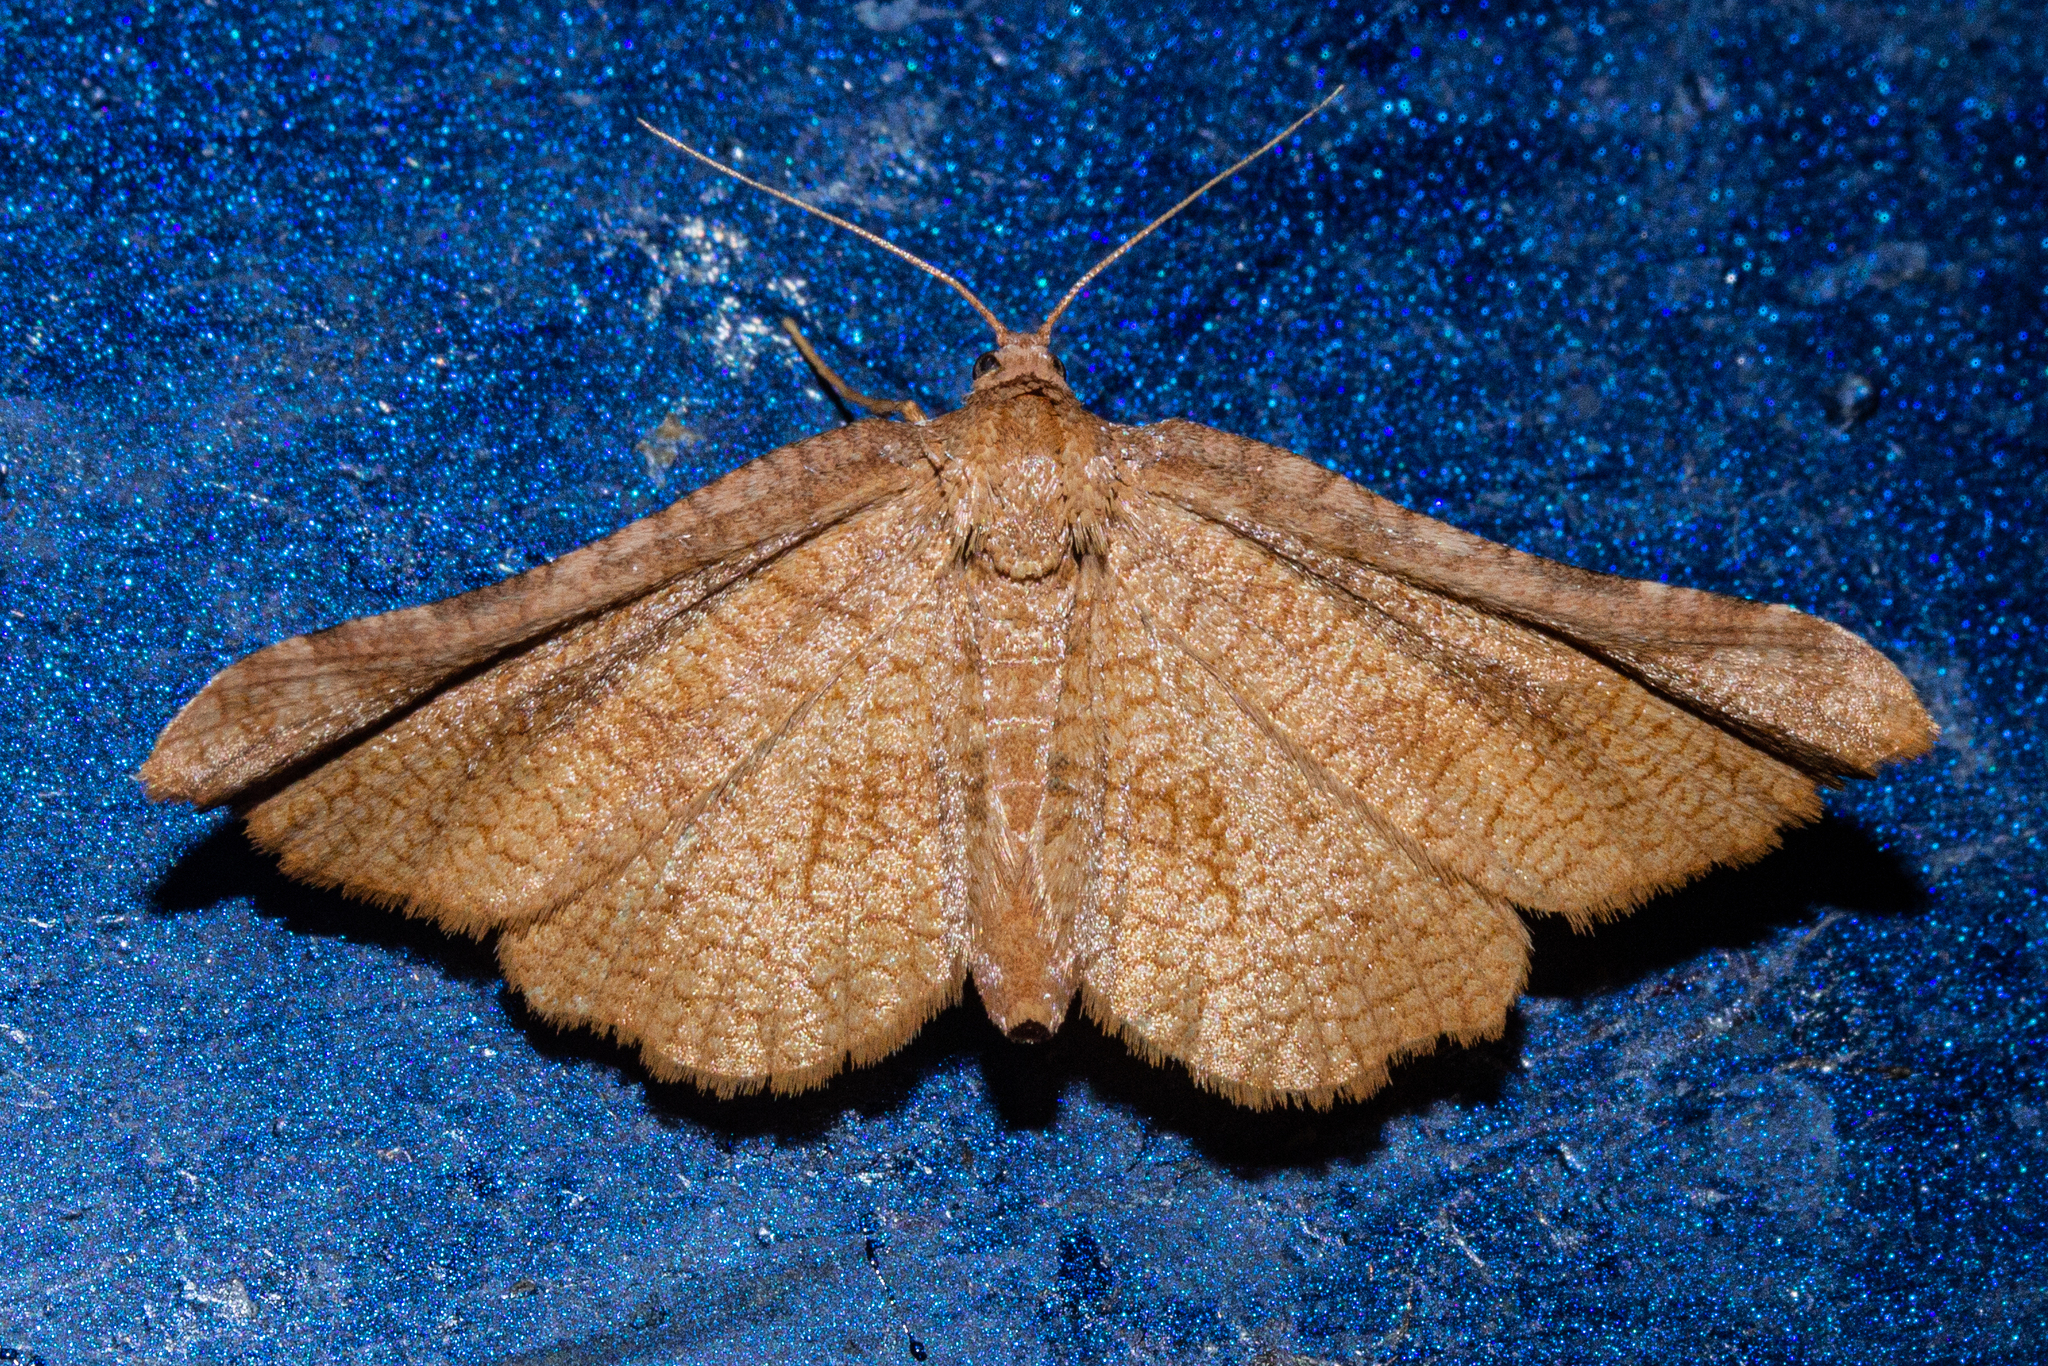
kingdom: Animalia
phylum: Arthropoda
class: Insecta
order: Lepidoptera
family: Thyrididae
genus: Morova
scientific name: Morova subfasciata
